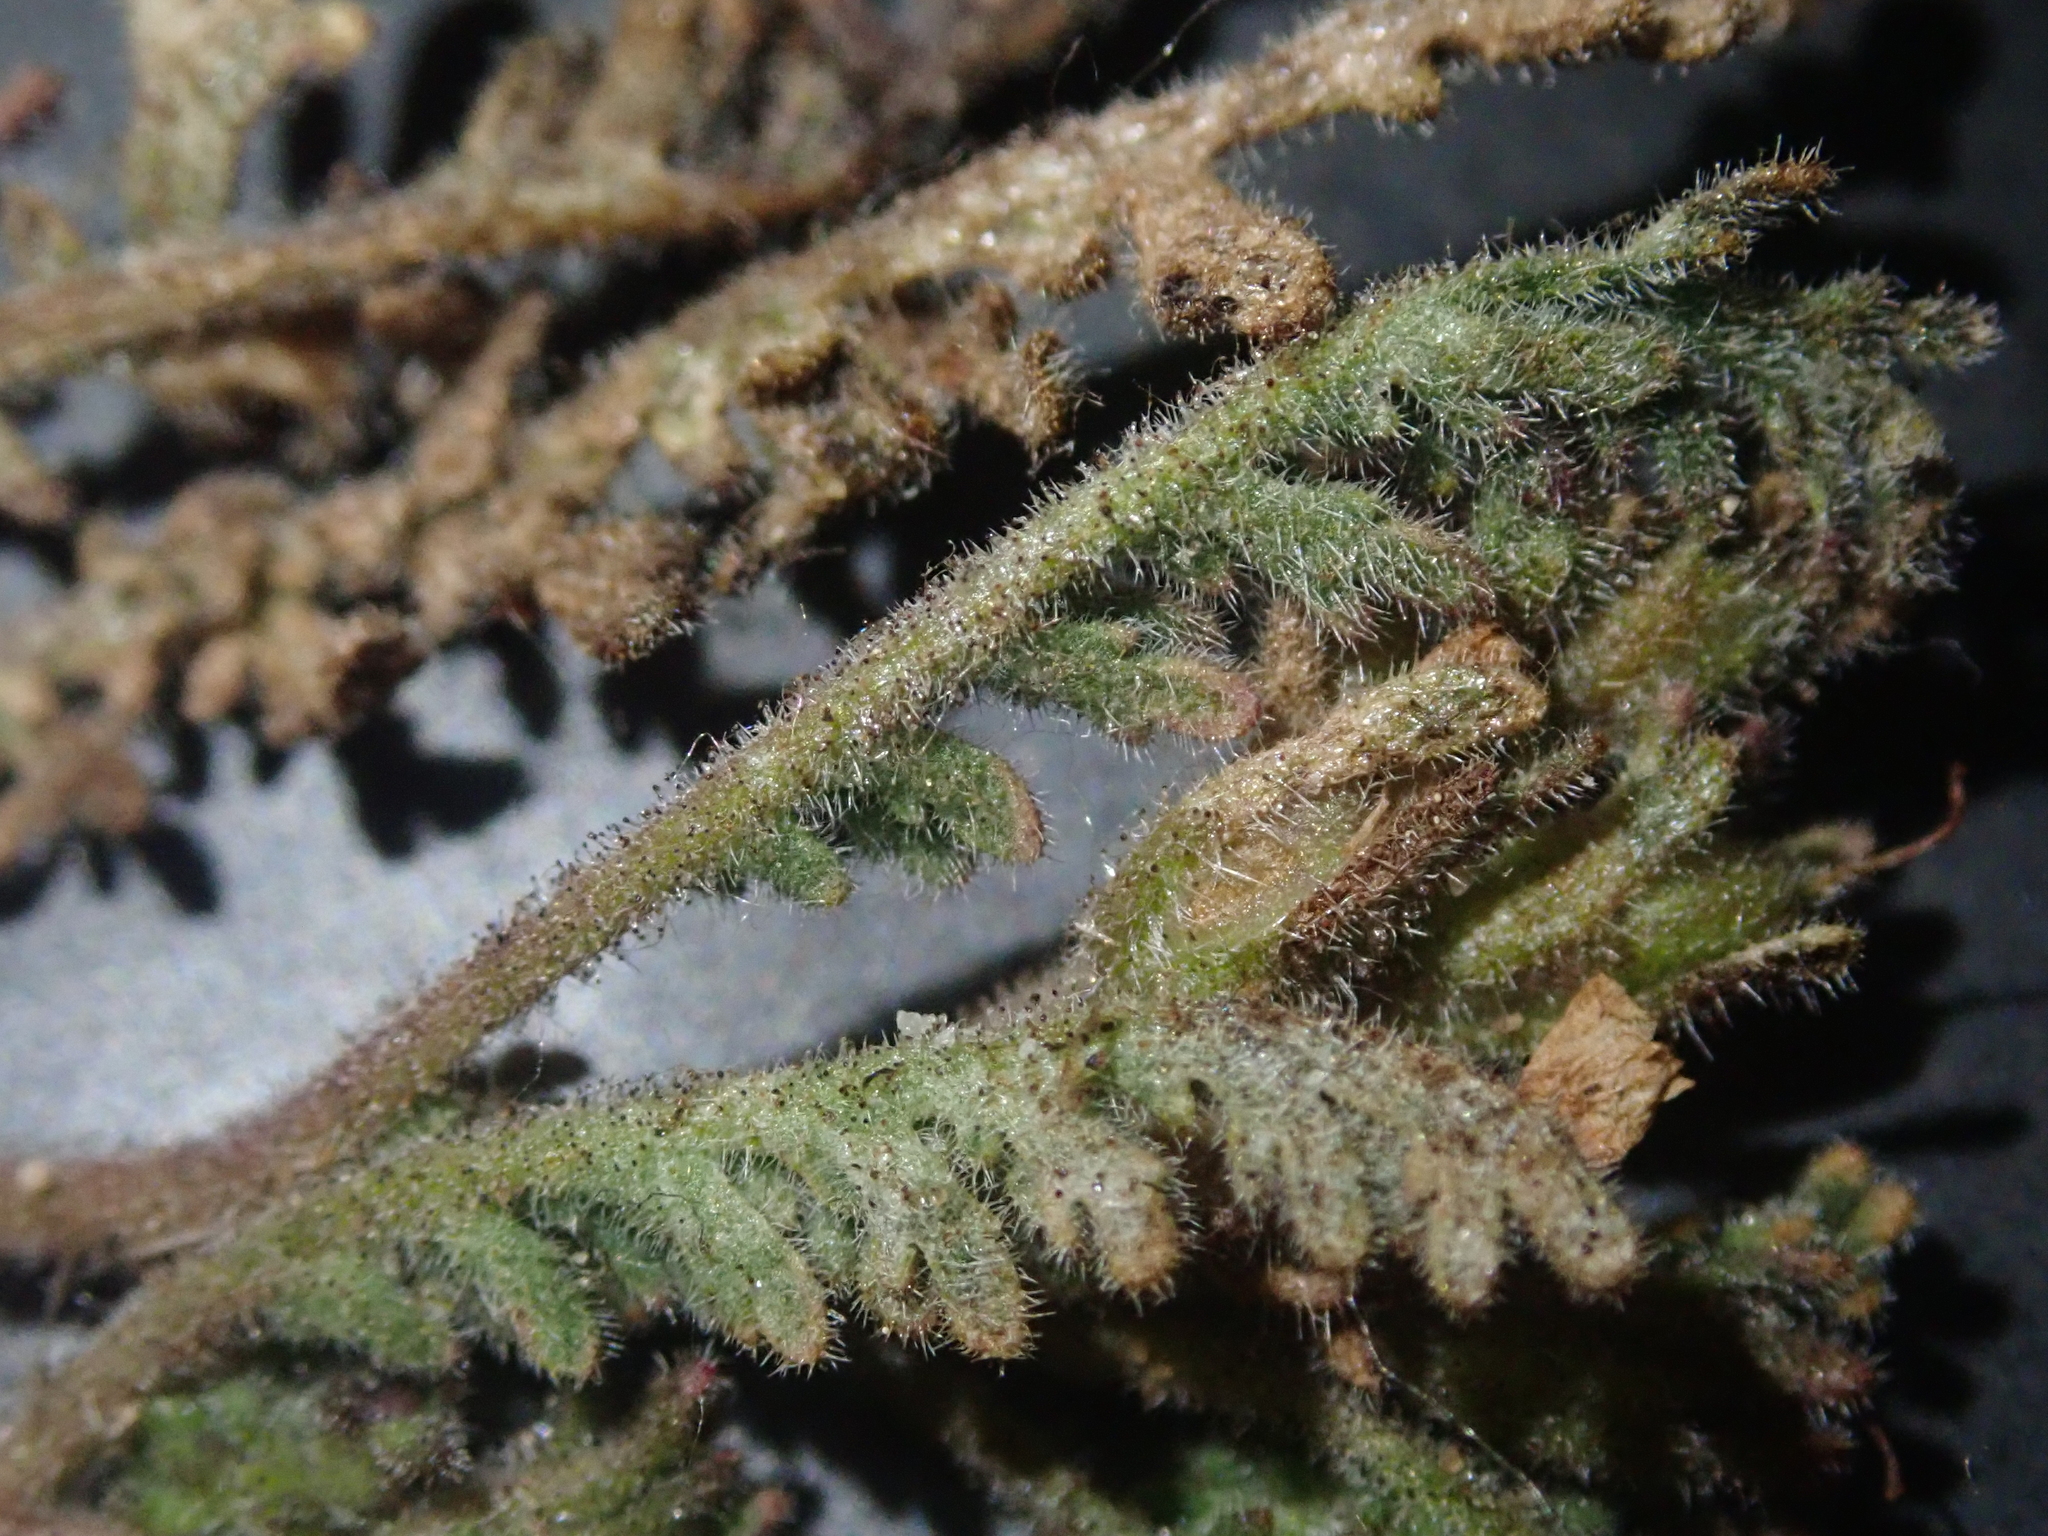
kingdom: Plantae
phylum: Tracheophyta
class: Magnoliopsida
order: Boraginales
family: Hydrophyllaceae
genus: Phacelia
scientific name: Phacelia glandulifera
